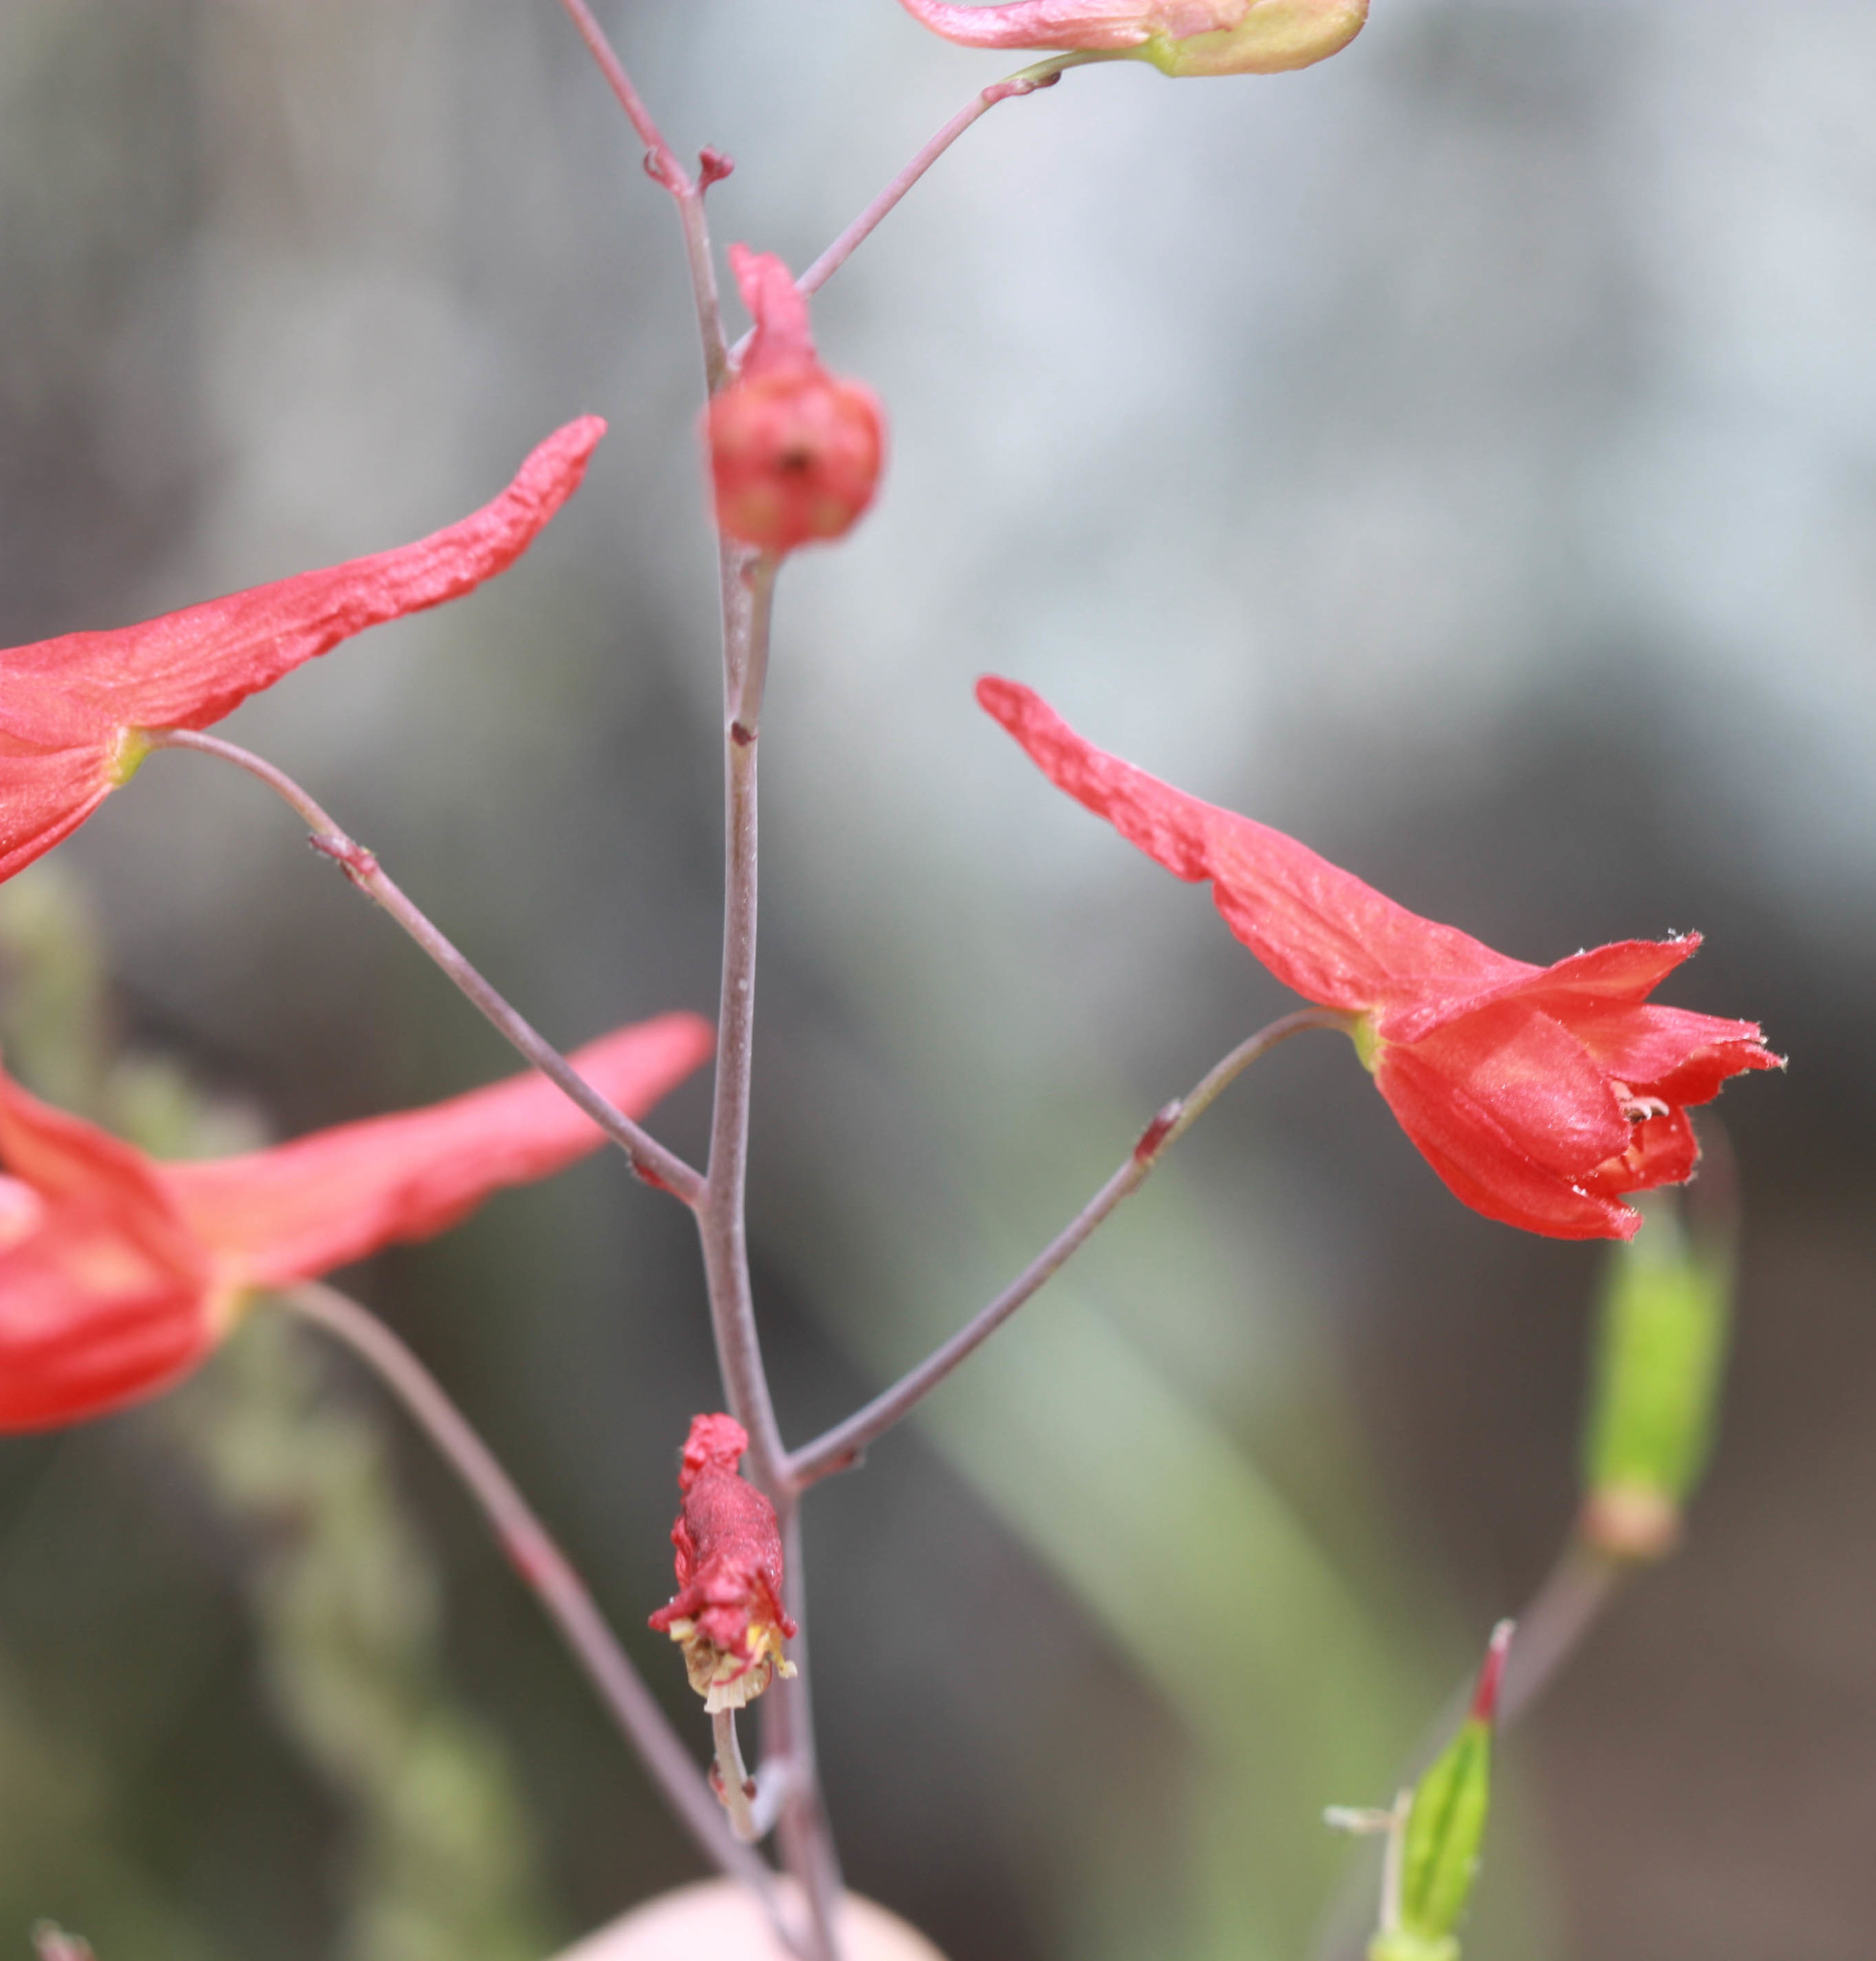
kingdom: Plantae
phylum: Tracheophyta
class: Magnoliopsida
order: Ranunculales
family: Ranunculaceae
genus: Delphinium
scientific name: Delphinium nudicaule
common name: Red larkspur
